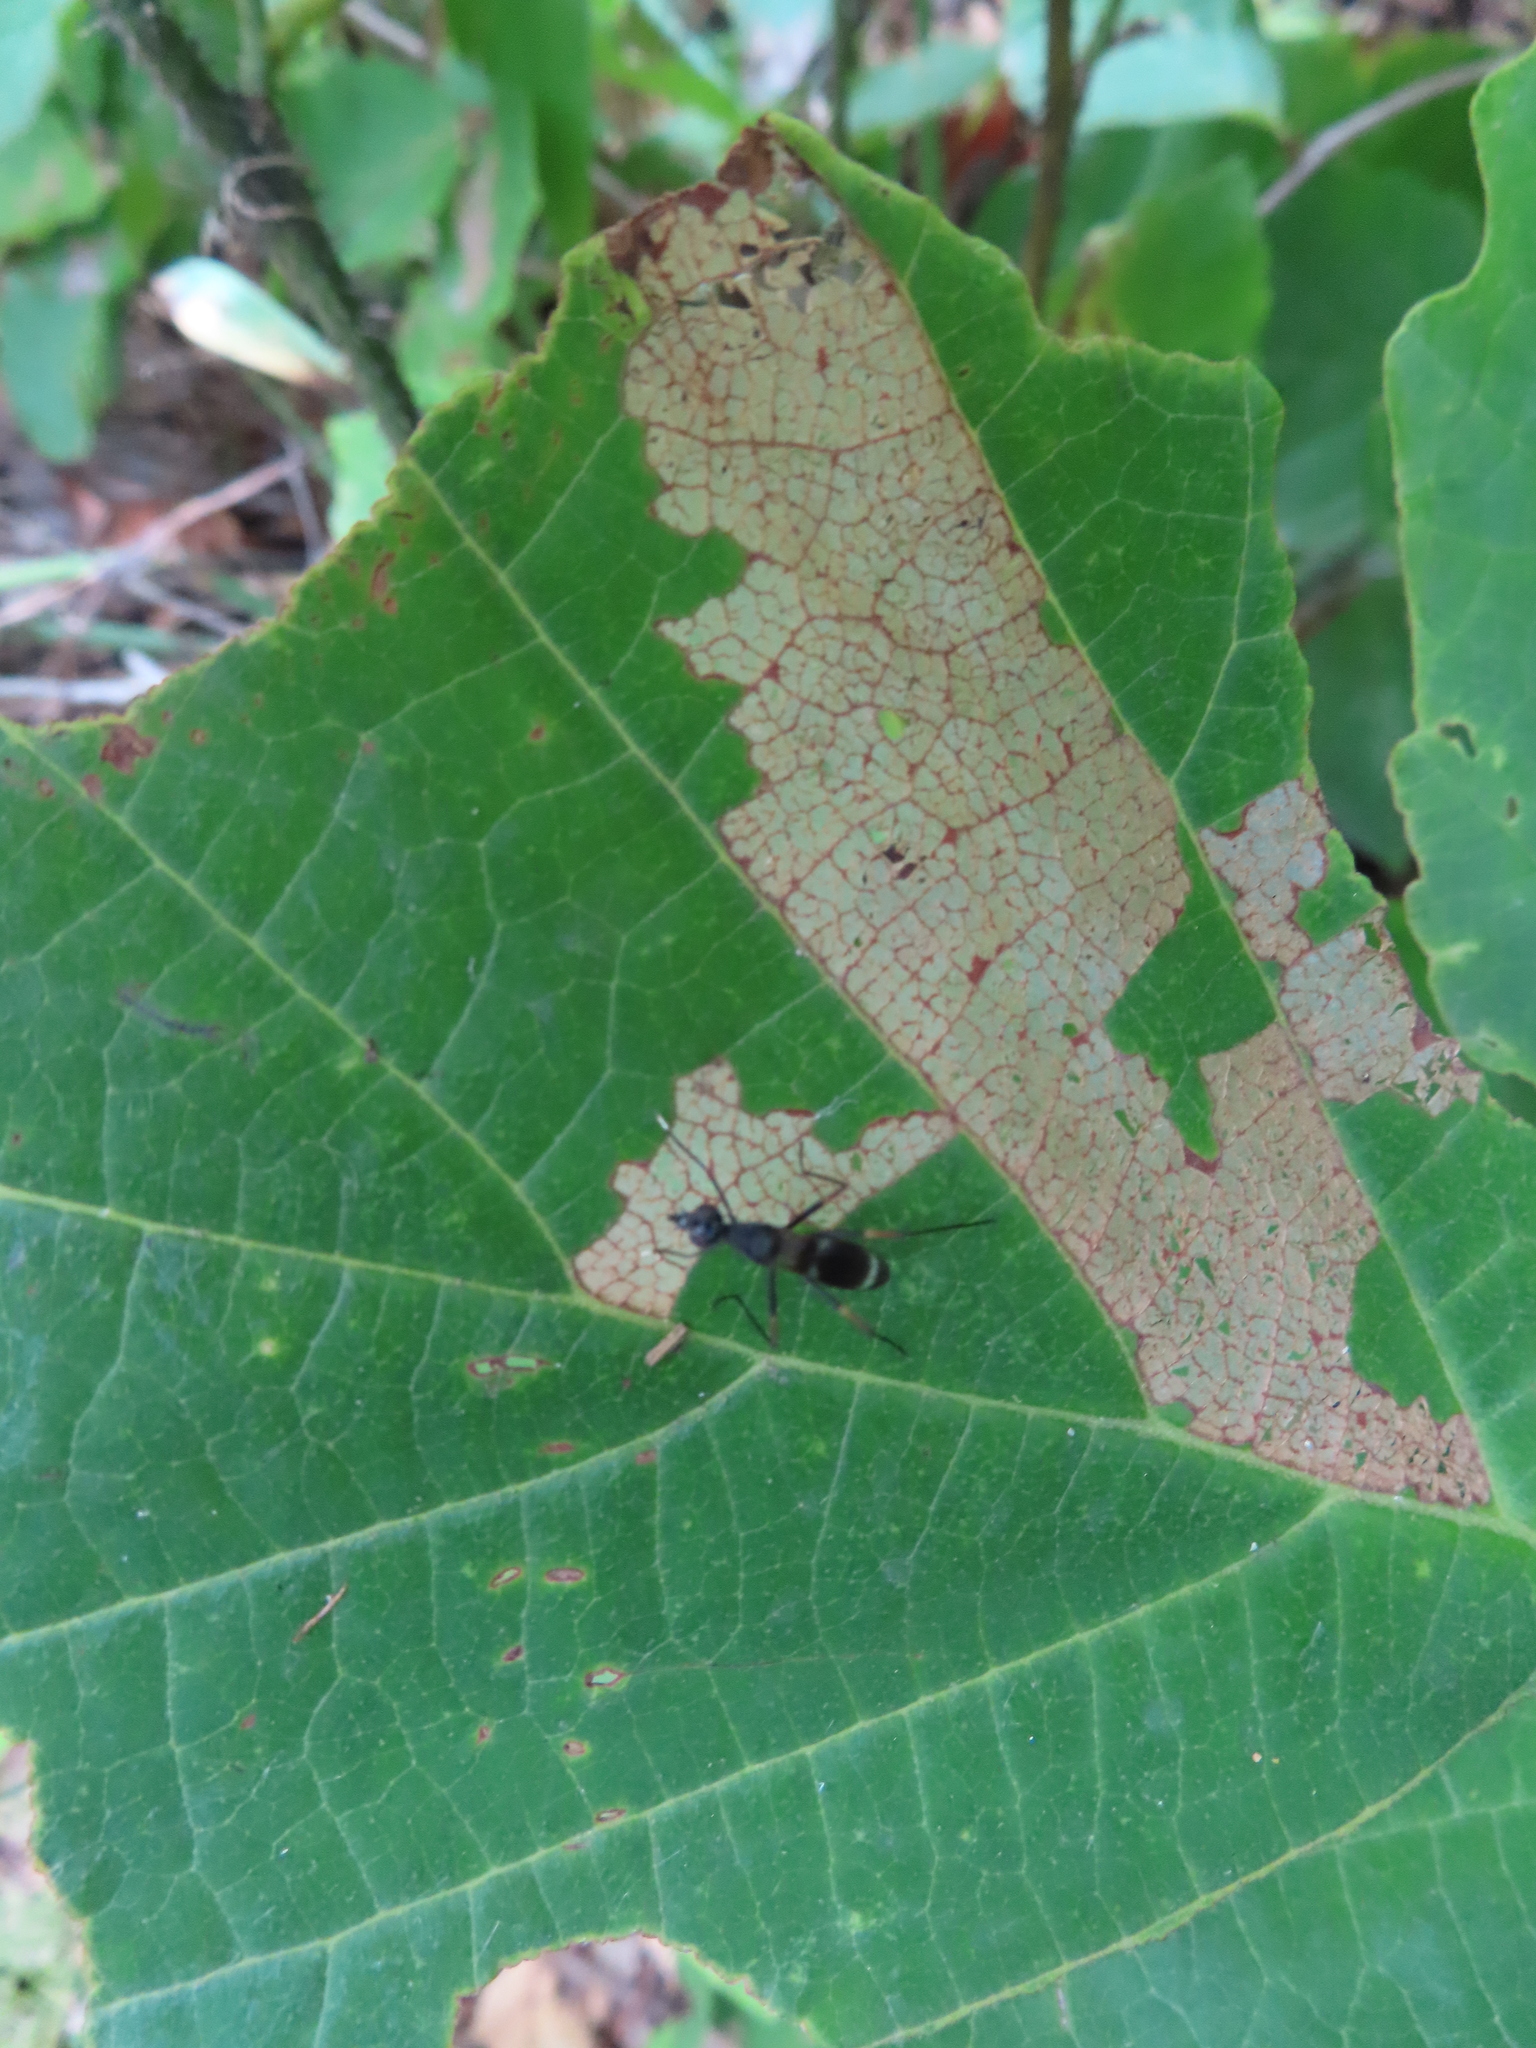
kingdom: Animalia
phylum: Arthropoda
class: Insecta
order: Diptera
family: Micropezidae
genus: Taeniaptera
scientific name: Taeniaptera trivittata
